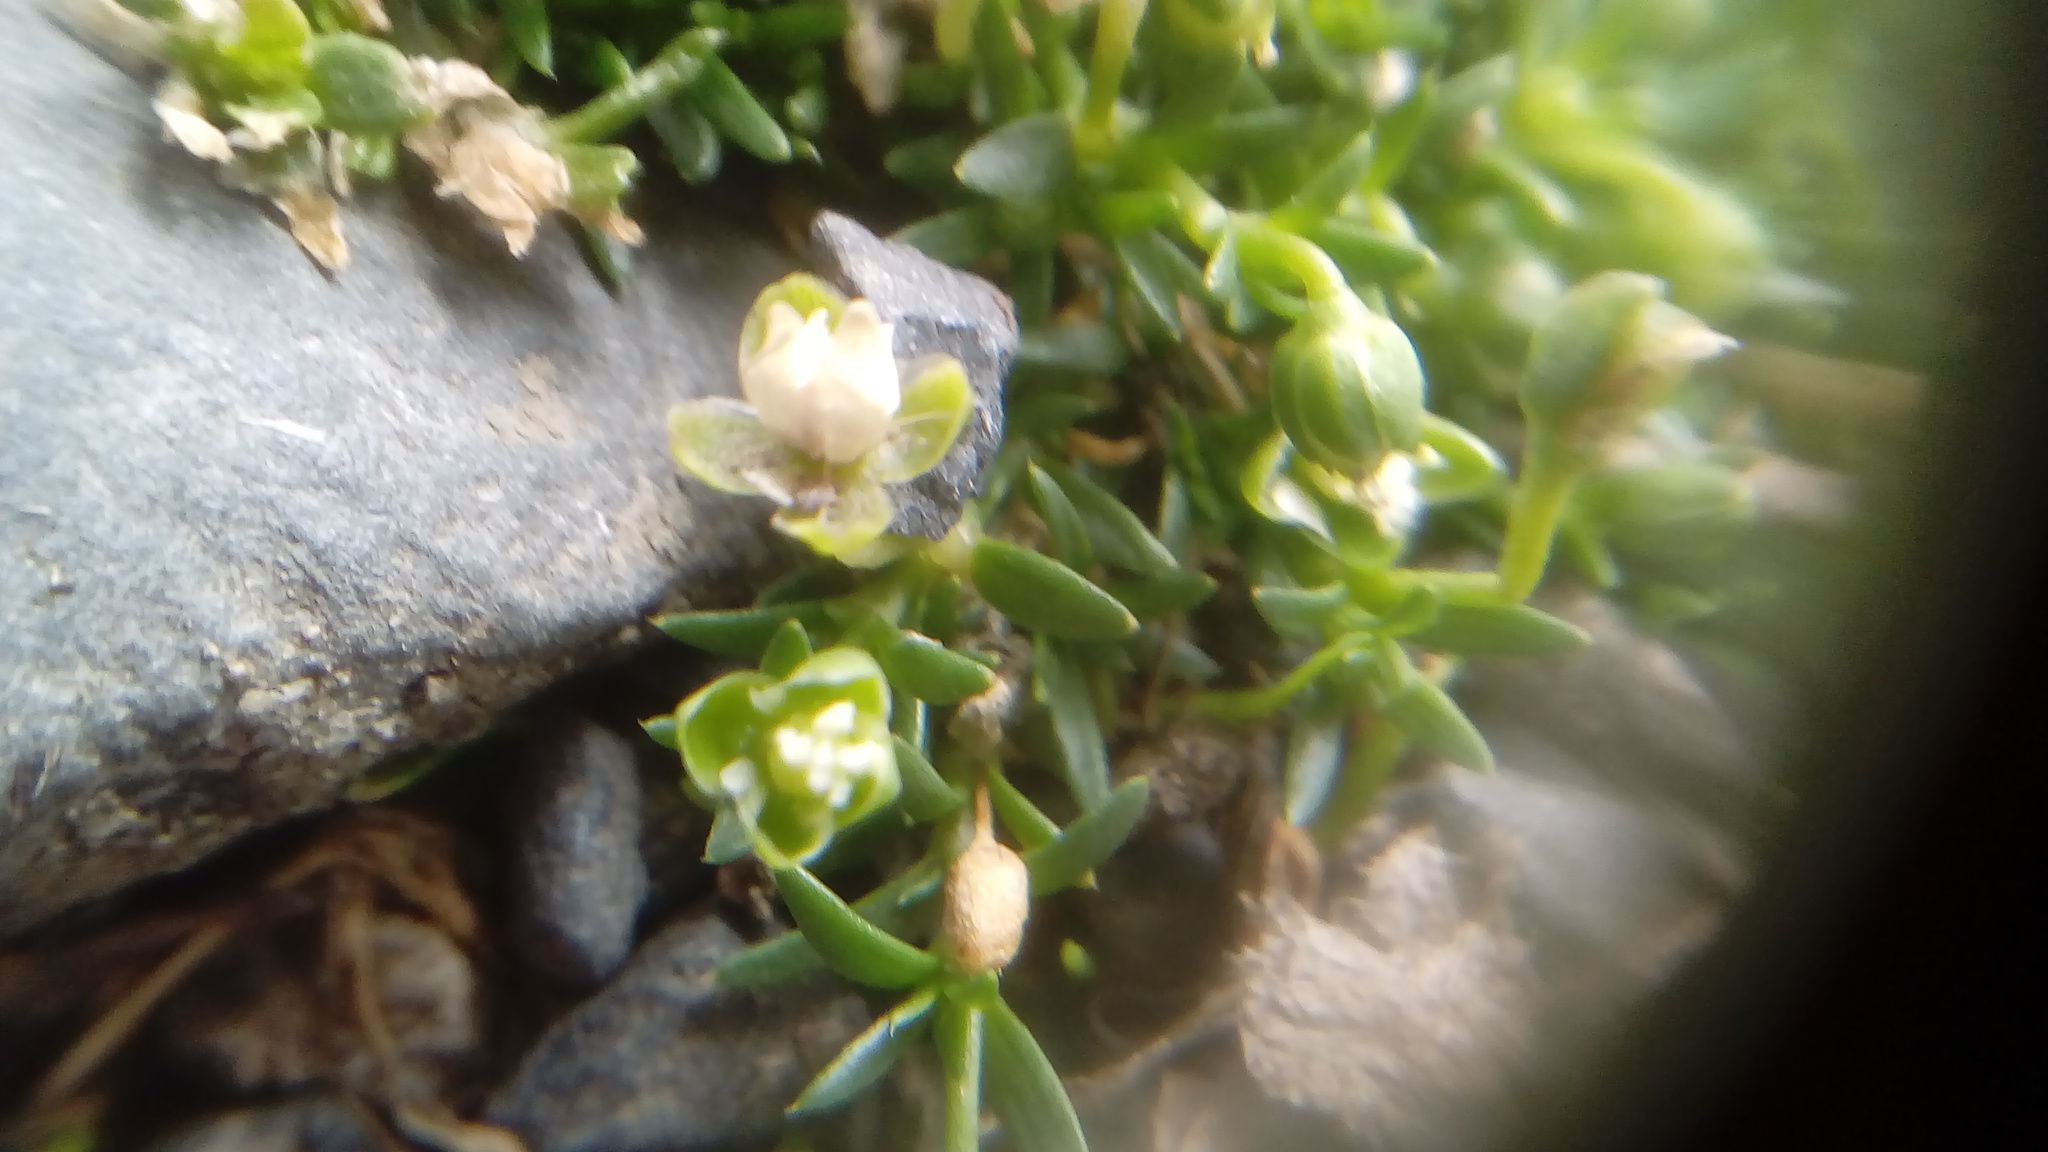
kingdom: Plantae
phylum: Tracheophyta
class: Magnoliopsida
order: Caryophyllales
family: Caryophyllaceae
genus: Sagina
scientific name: Sagina procumbens
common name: Procumbent pearlwort
